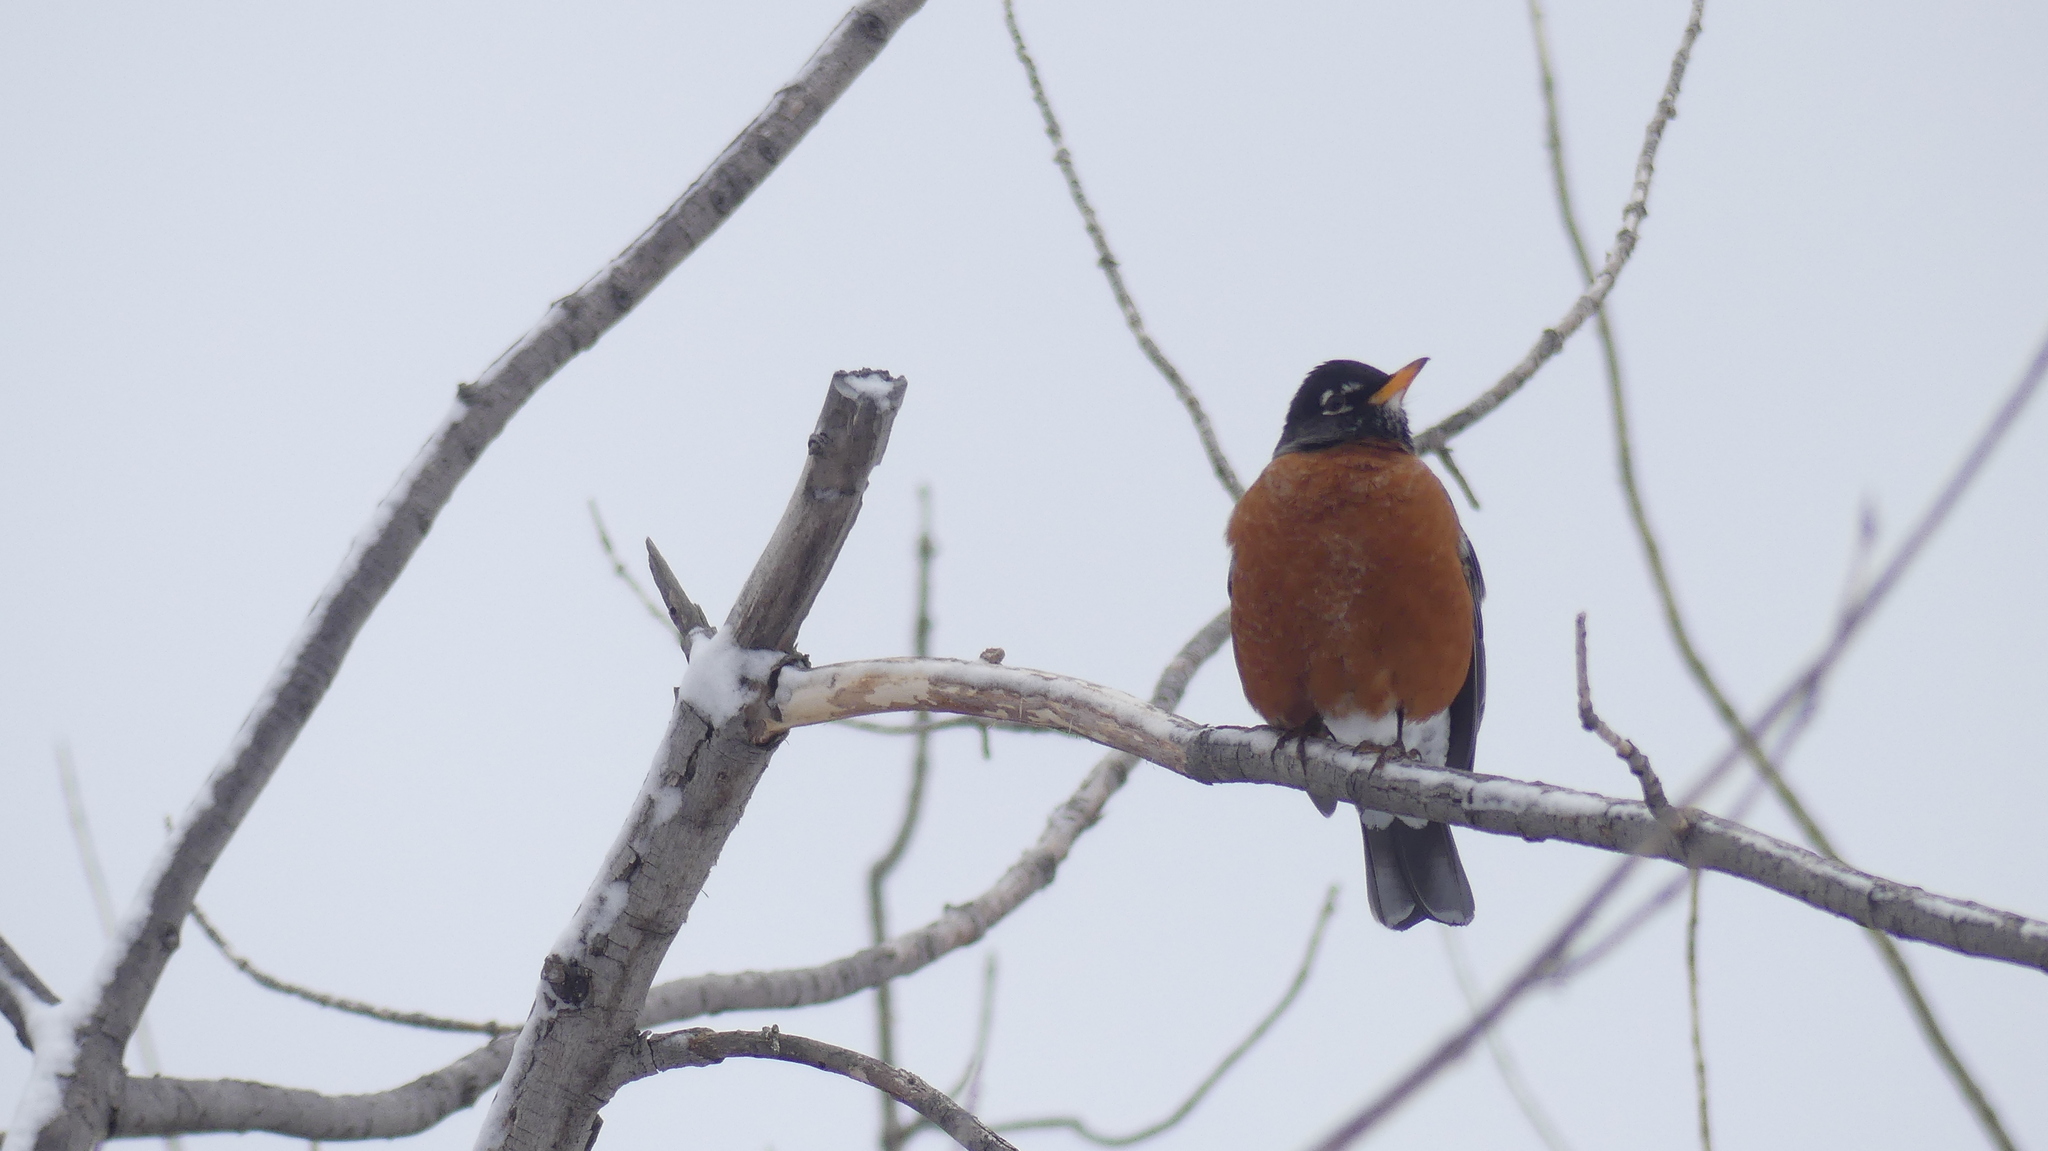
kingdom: Animalia
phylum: Chordata
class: Aves
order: Passeriformes
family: Turdidae
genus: Turdus
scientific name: Turdus migratorius
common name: American robin
